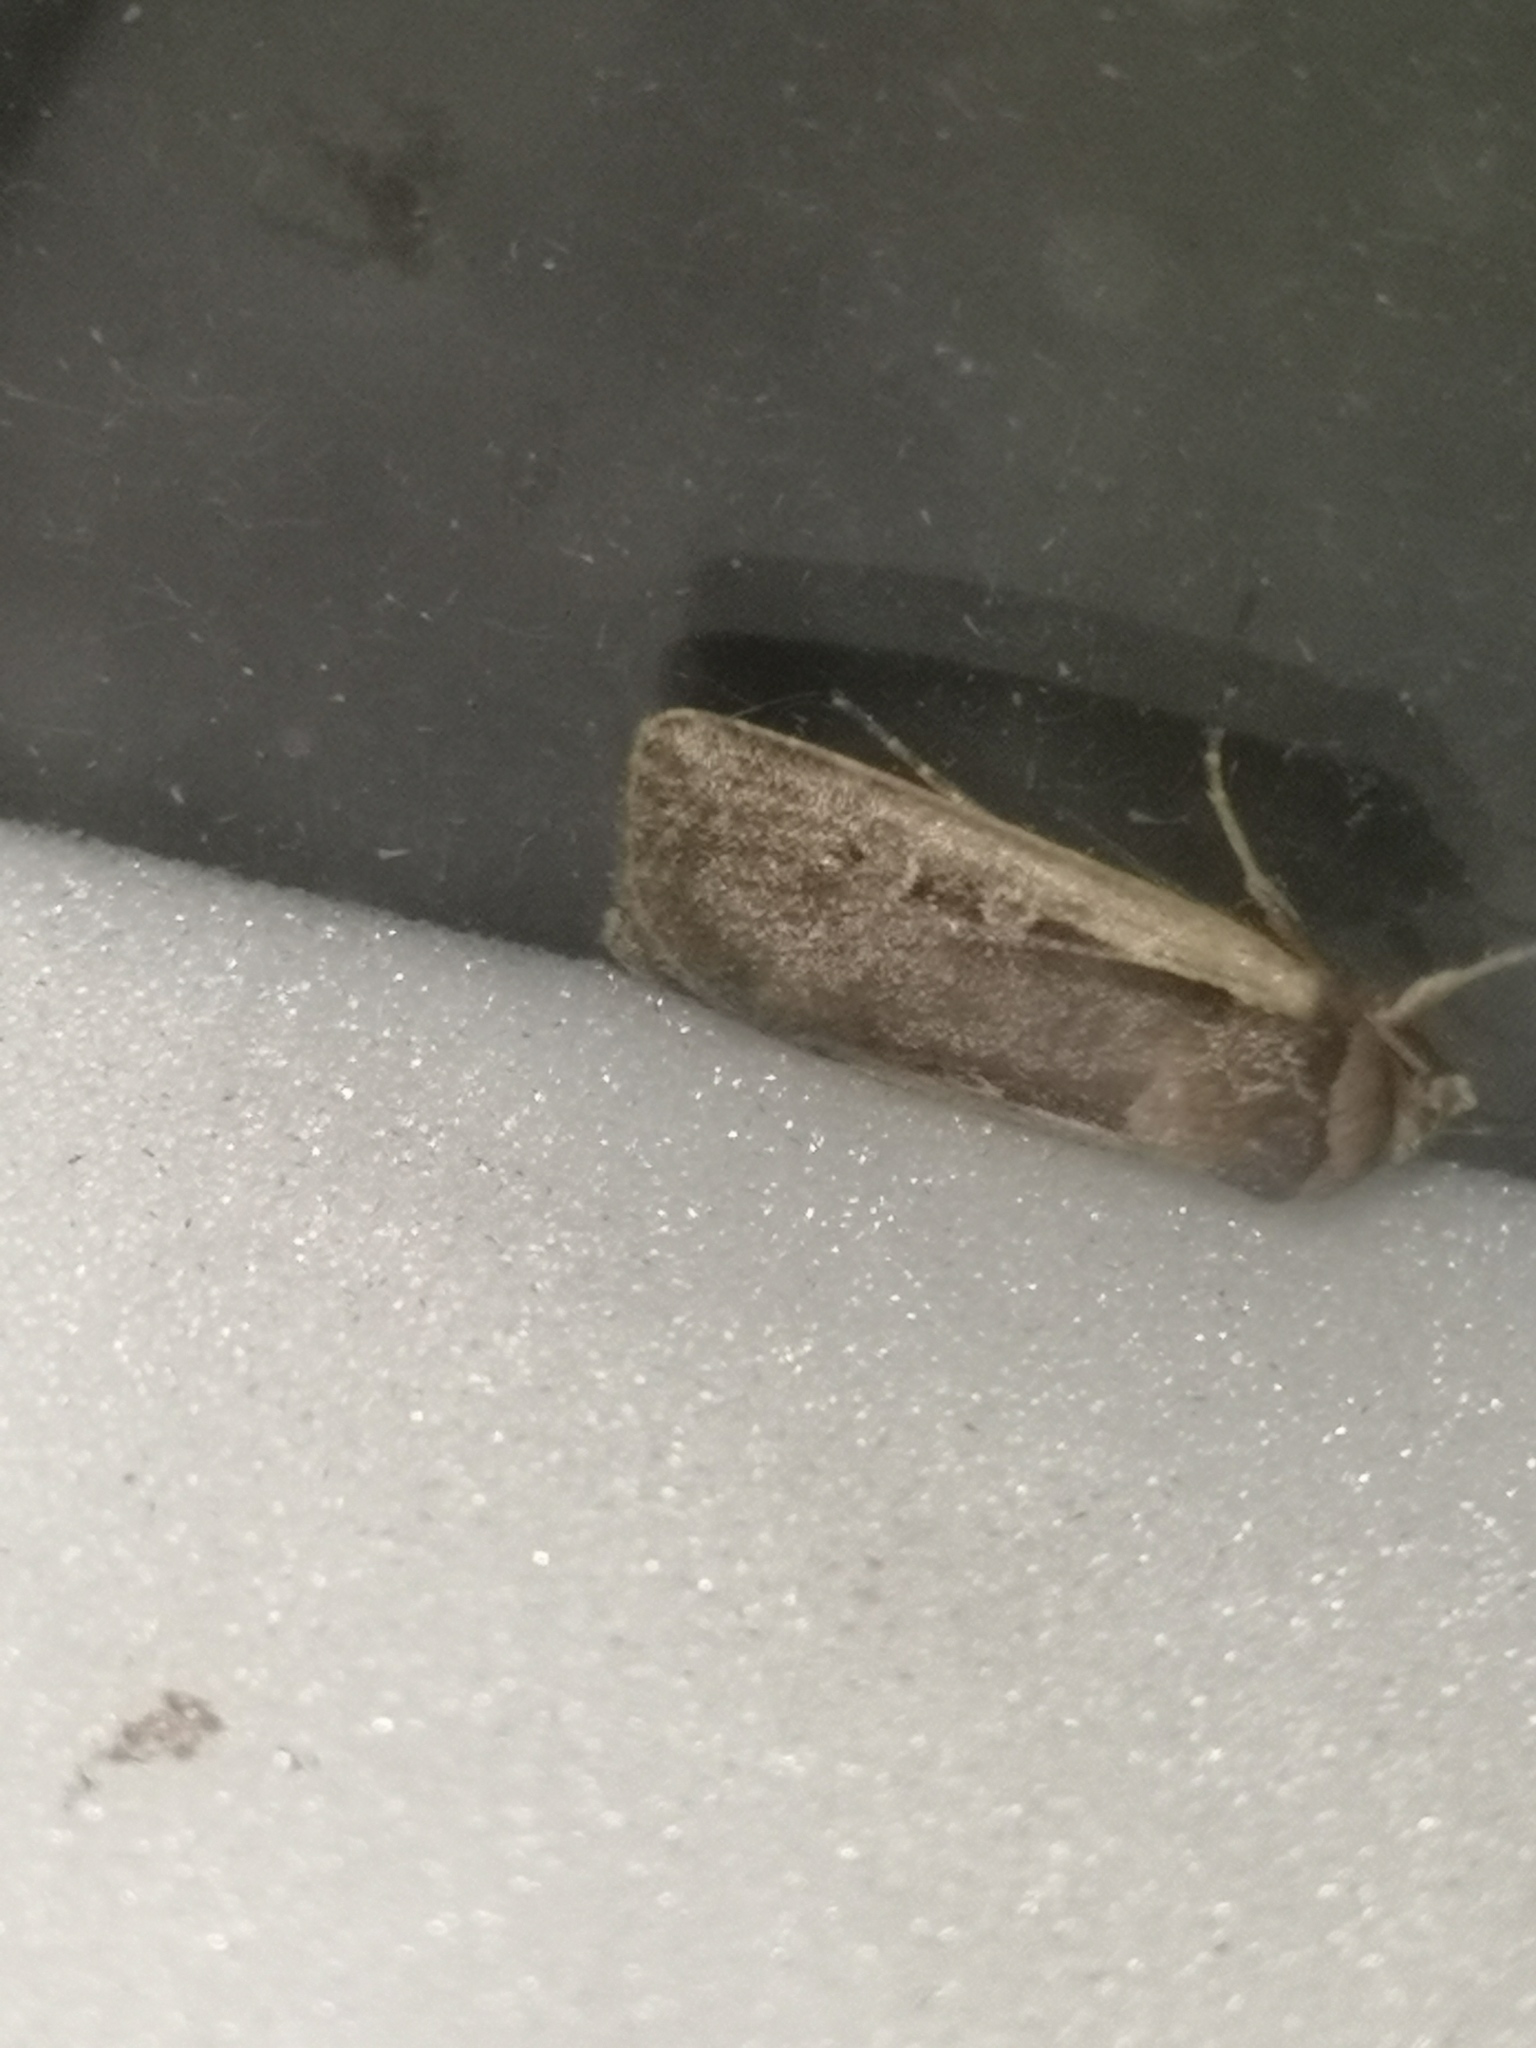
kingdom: Animalia
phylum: Arthropoda
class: Insecta
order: Lepidoptera
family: Noctuidae
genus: Ochropleura
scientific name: Ochropleura plecta
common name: Flame shoulder
